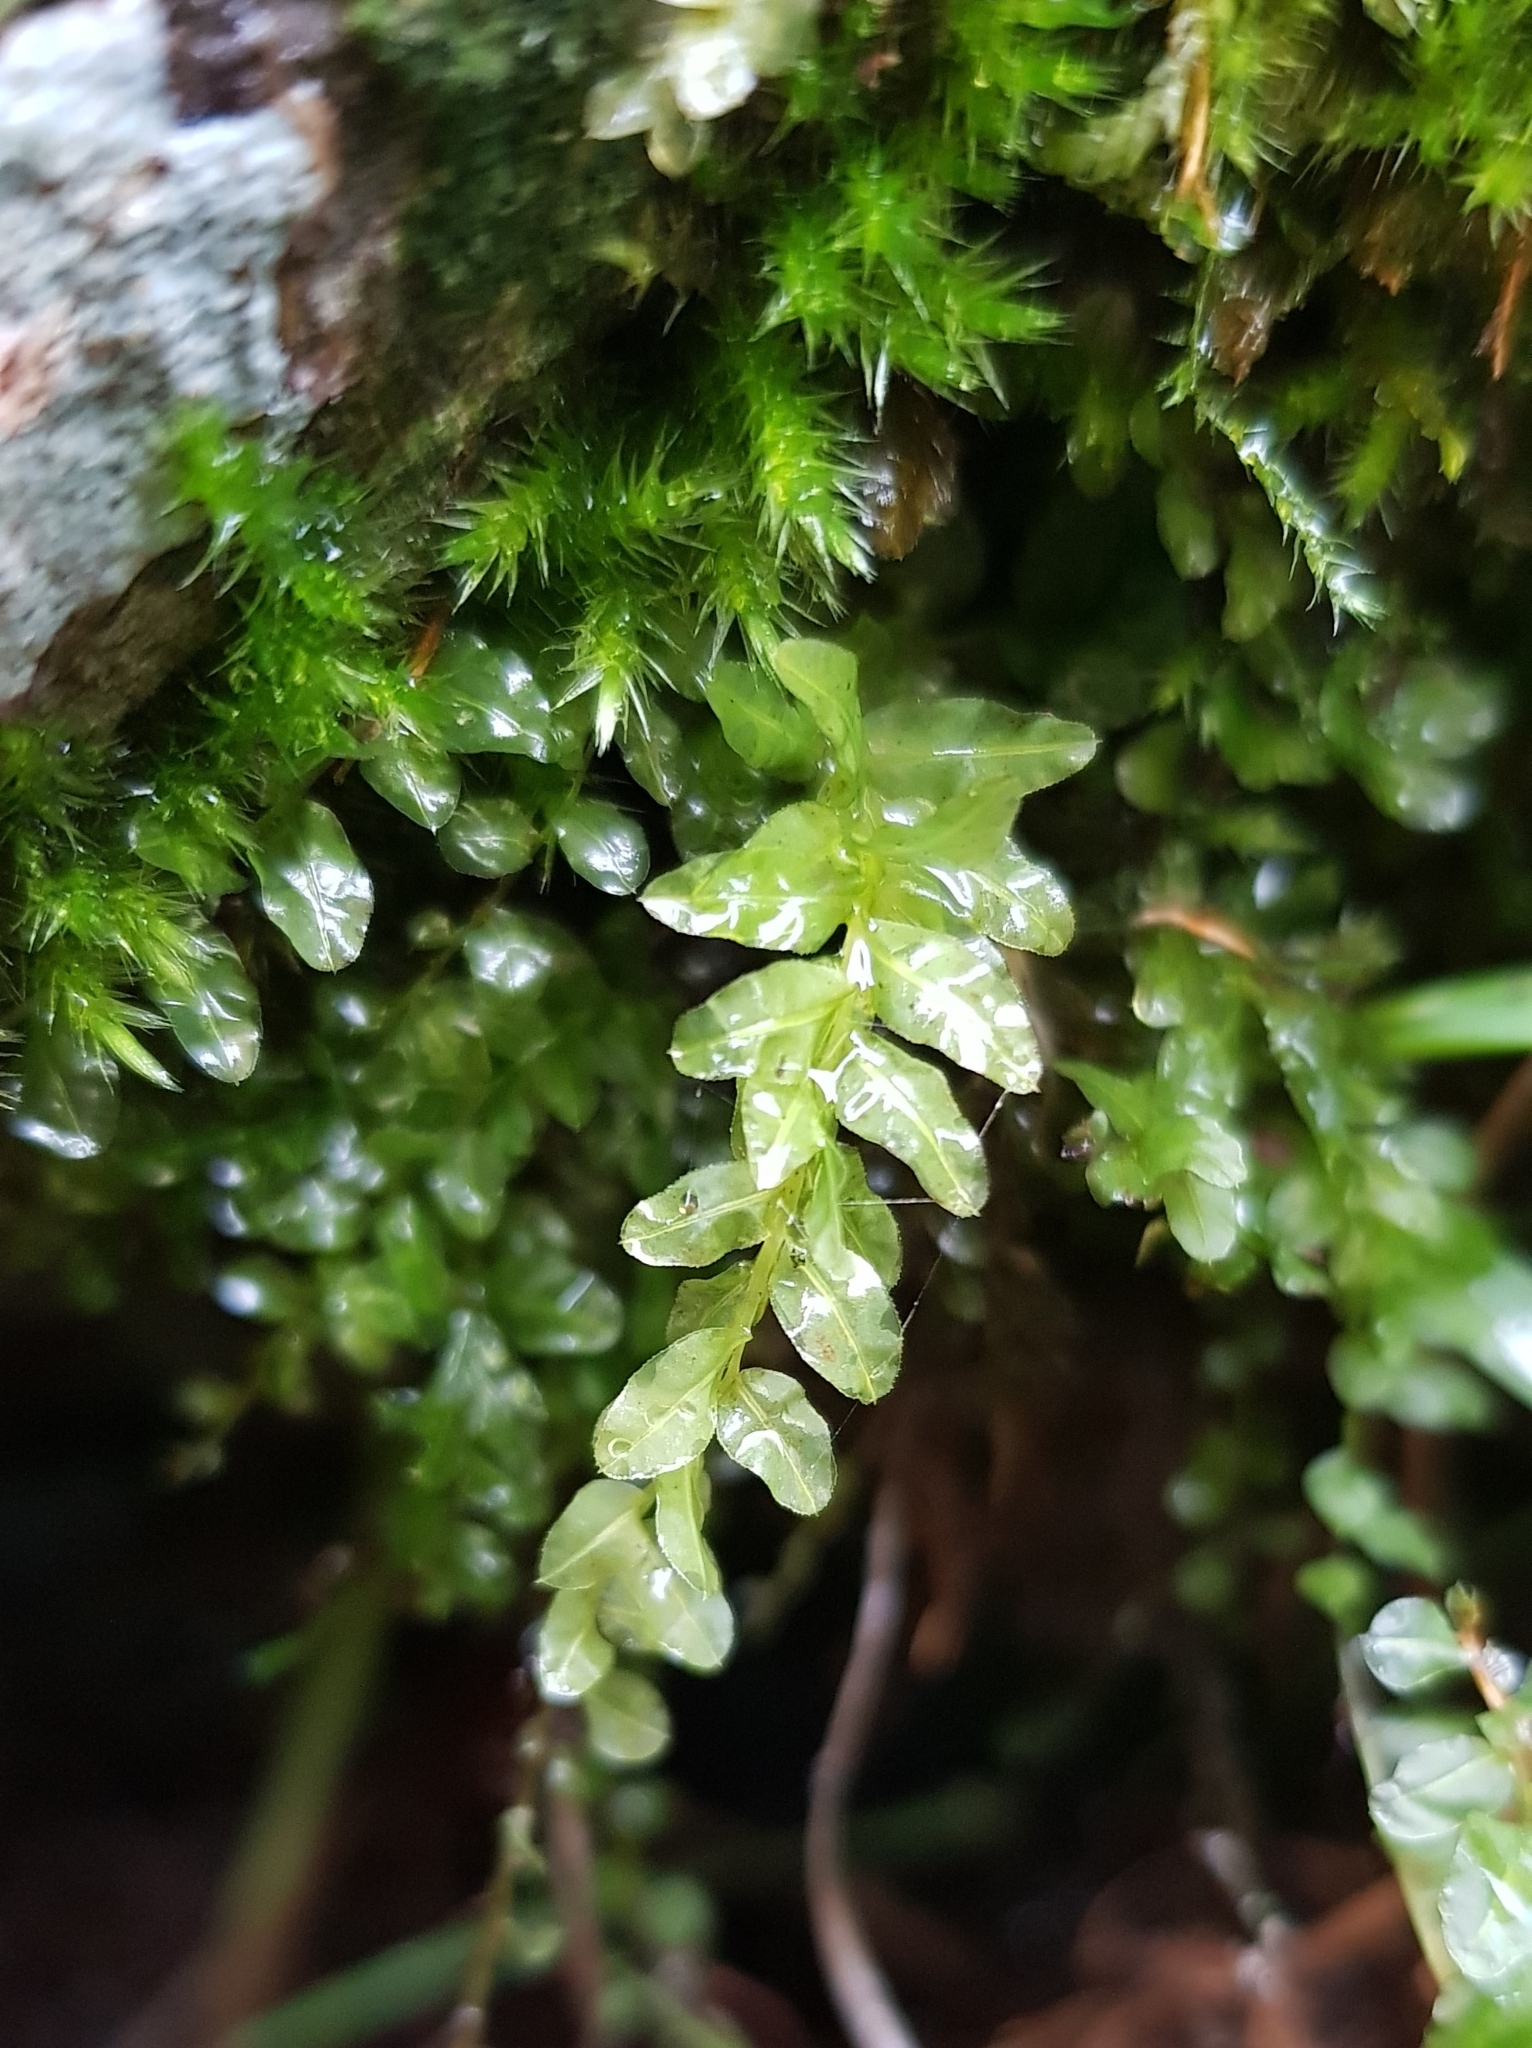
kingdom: Plantae
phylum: Bryophyta
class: Bryopsida
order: Bryales
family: Mniaceae
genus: Plagiomnium
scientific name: Plagiomnium undulatum
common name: Hart's-tongue thyme-moss
